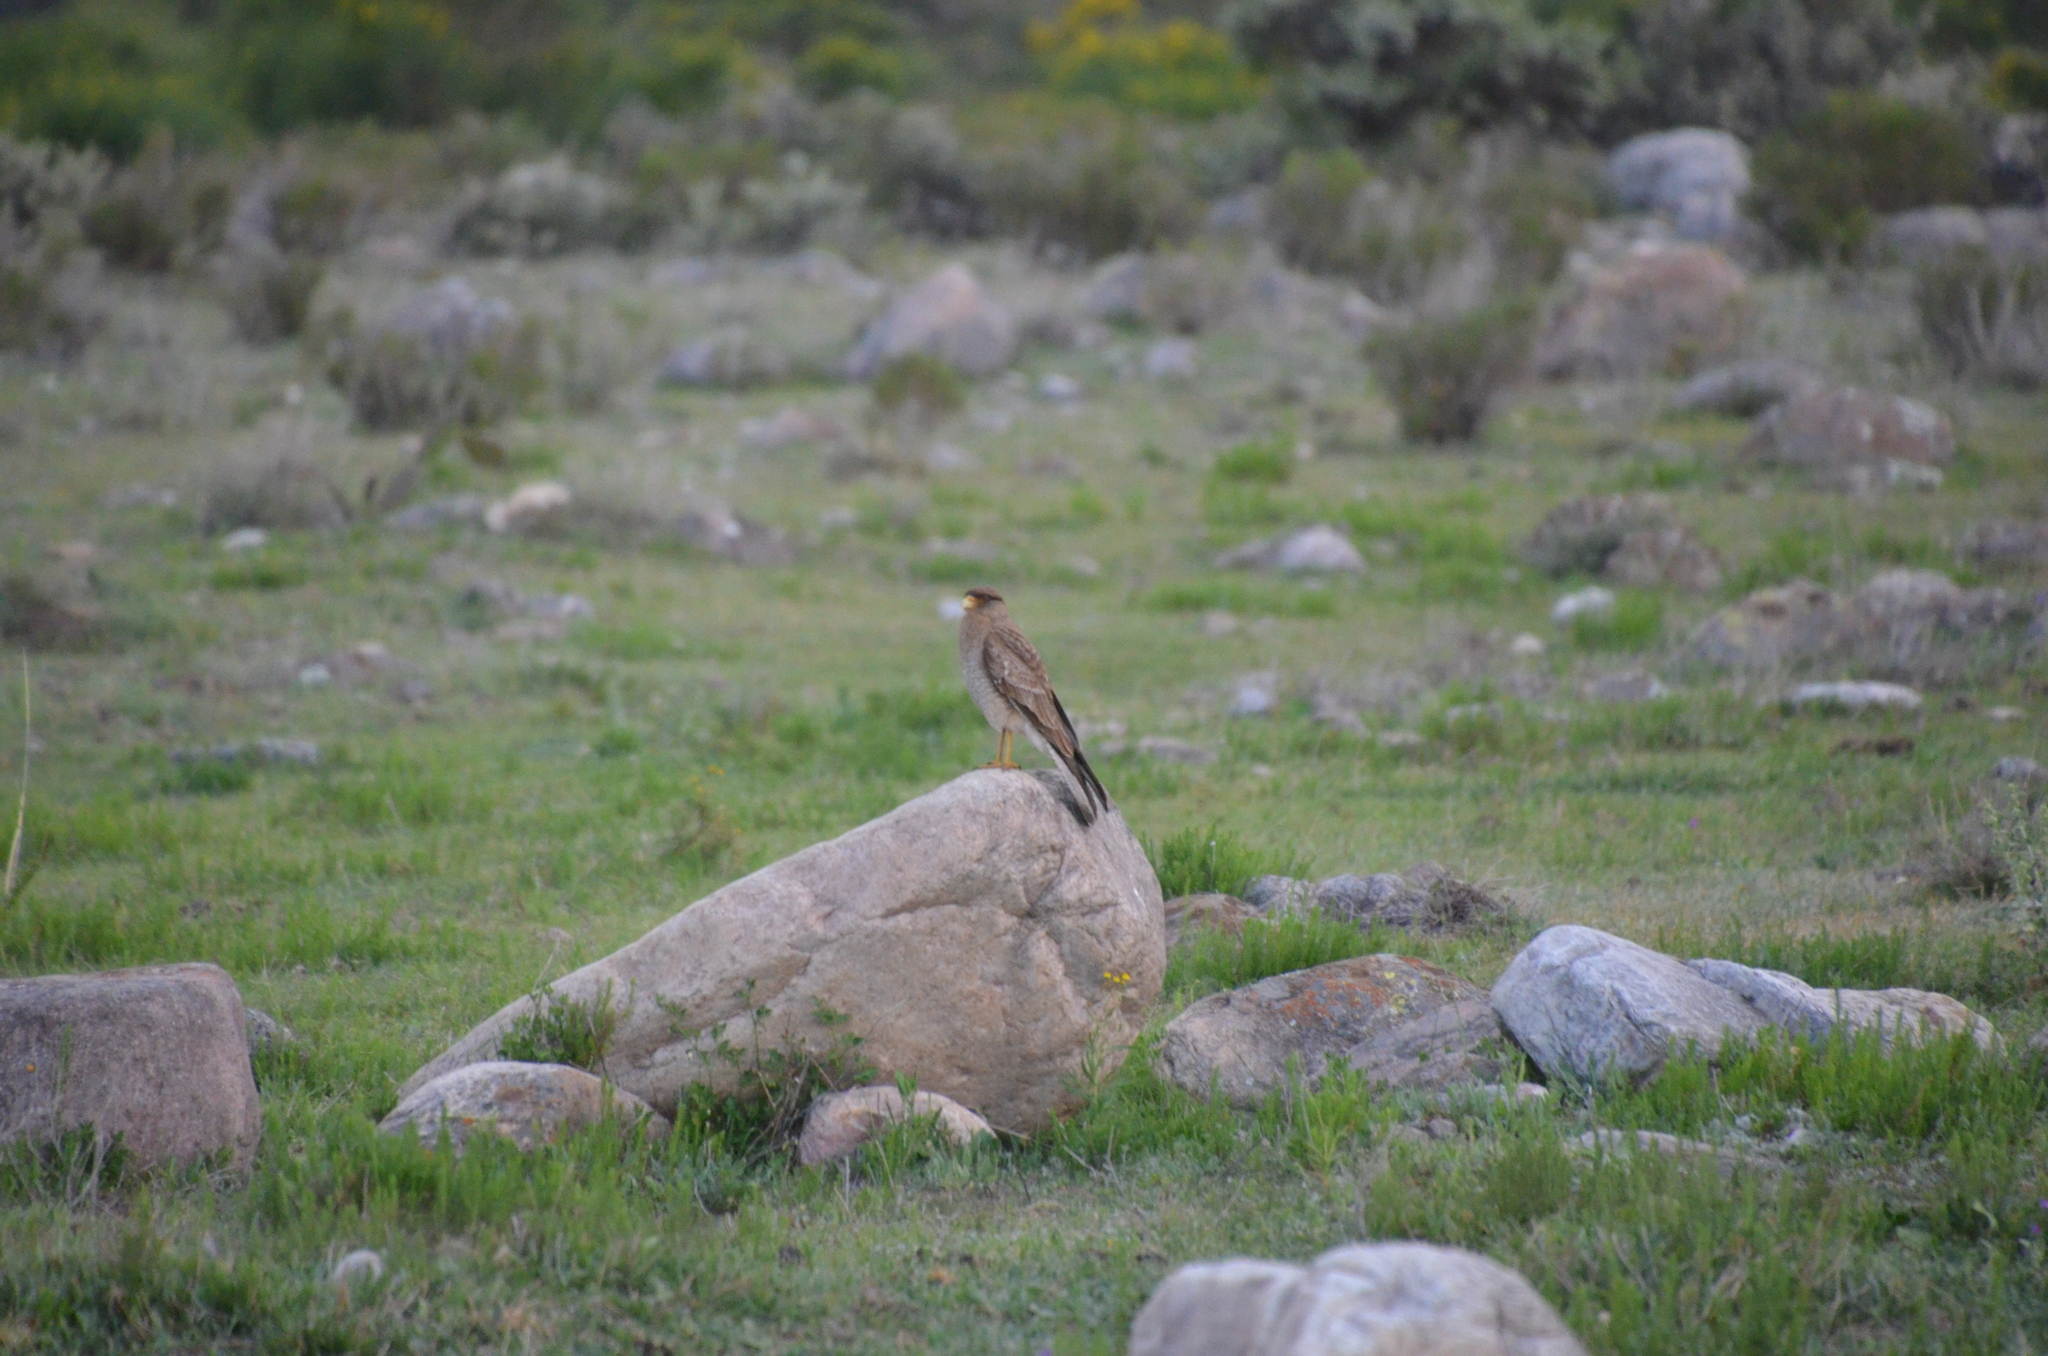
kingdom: Animalia
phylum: Chordata
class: Aves
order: Falconiformes
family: Falconidae
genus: Daptrius
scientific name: Daptrius
